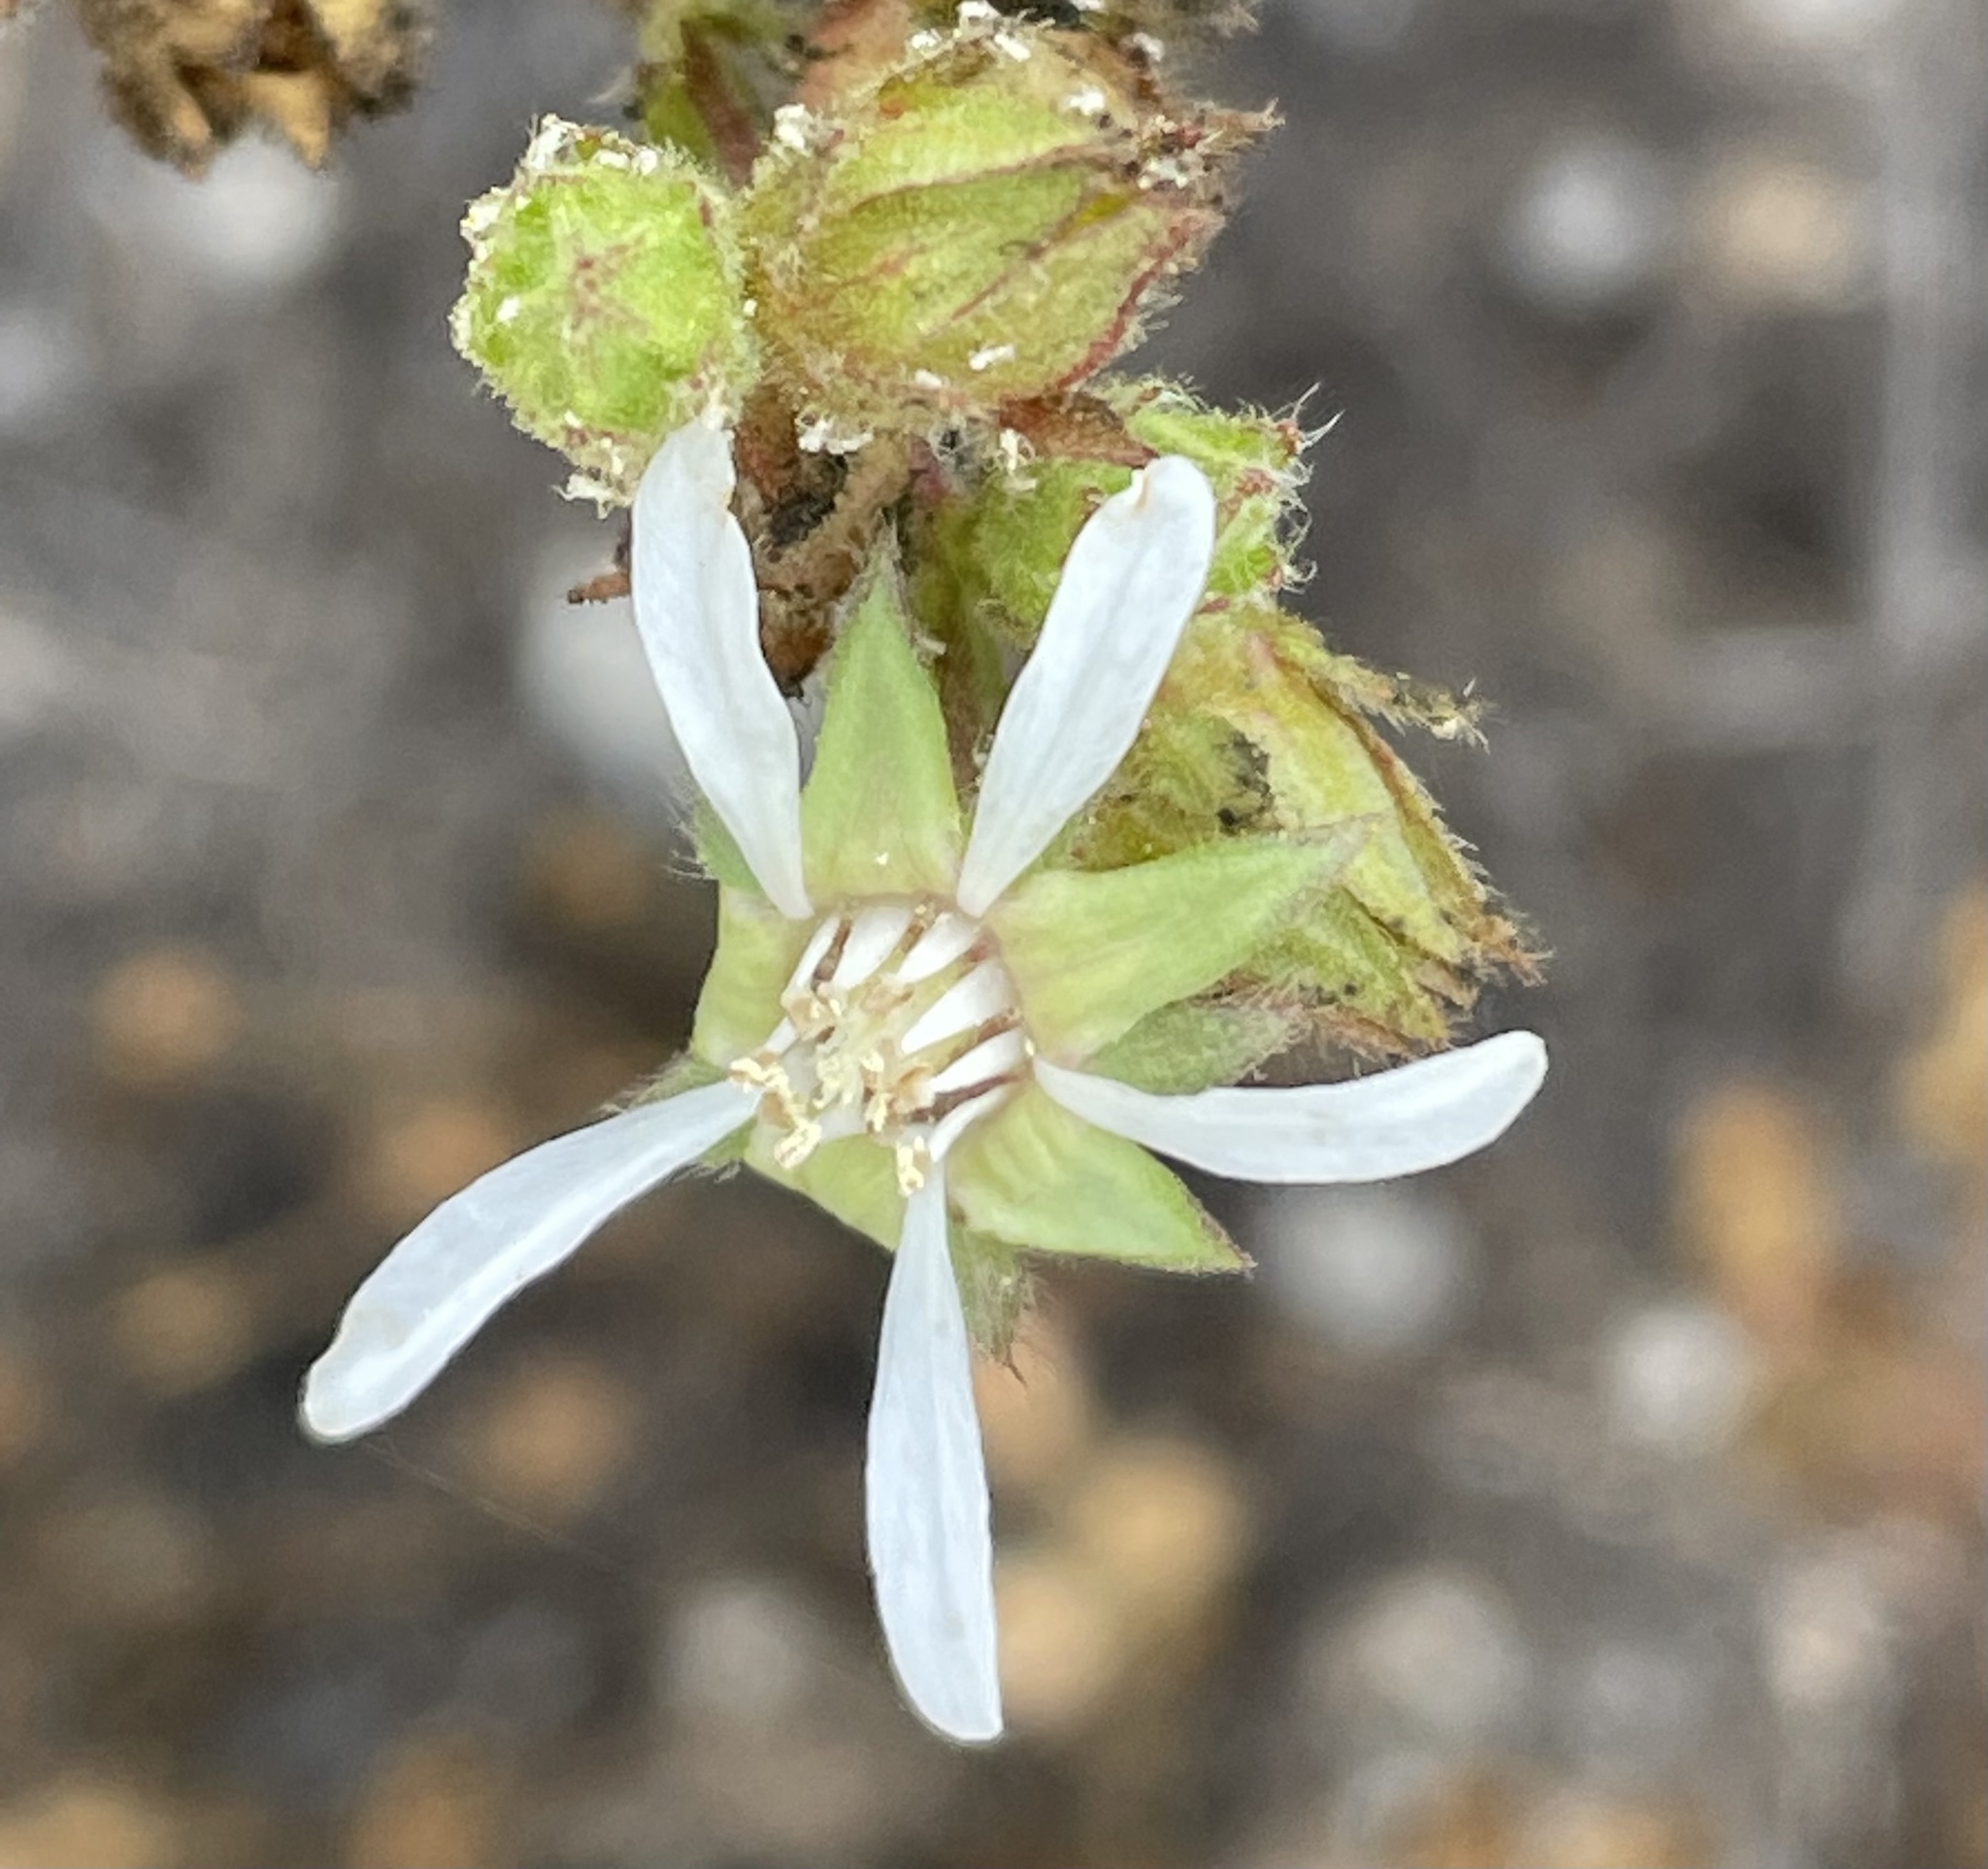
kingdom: Plantae
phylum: Tracheophyta
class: Magnoliopsida
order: Rosales
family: Rosaceae
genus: Potentilla
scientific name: Potentilla
